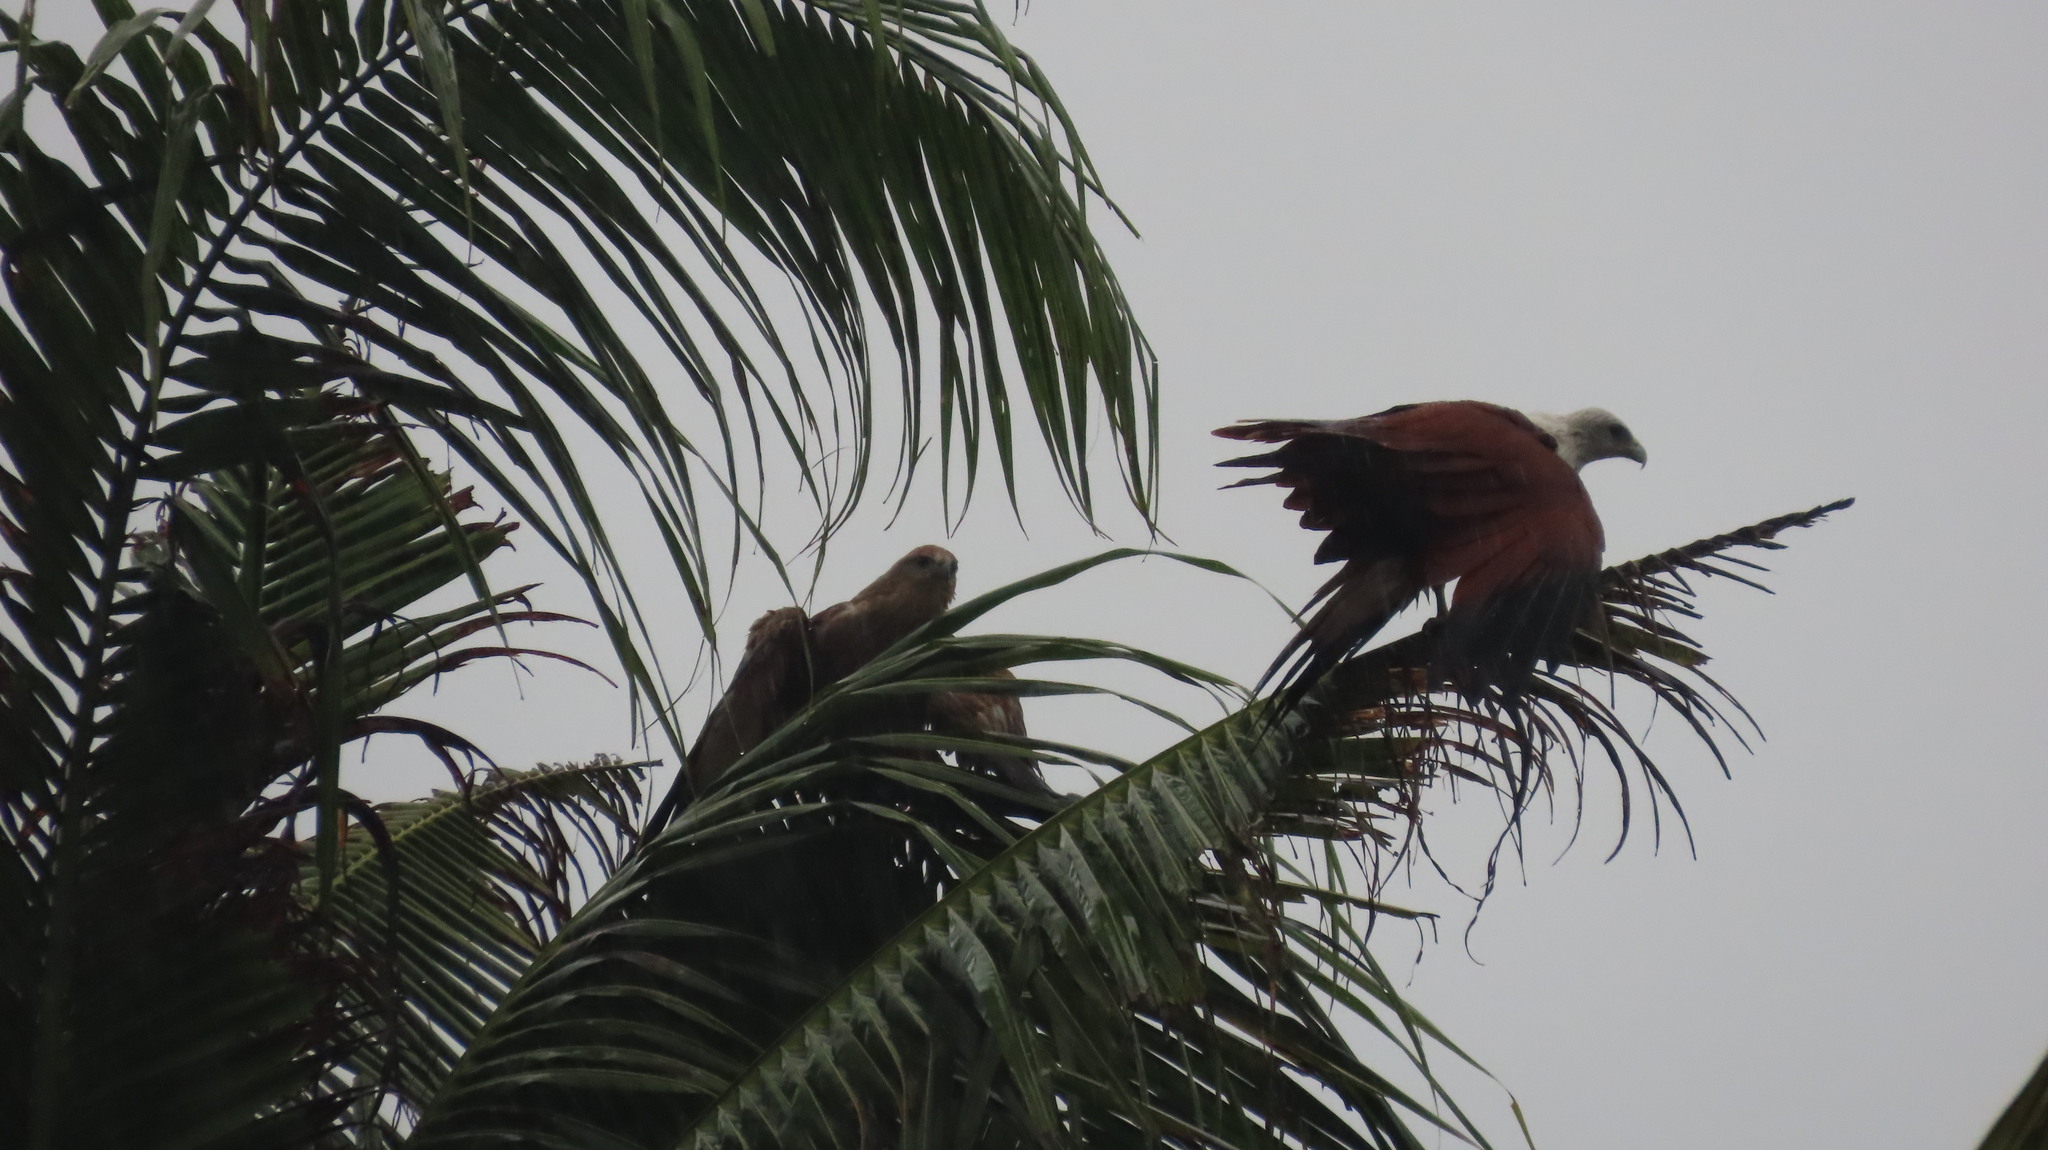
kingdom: Animalia
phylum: Chordata
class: Aves
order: Accipitriformes
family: Accipitridae
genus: Haliastur
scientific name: Haliastur indus
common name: Brahminy kite
